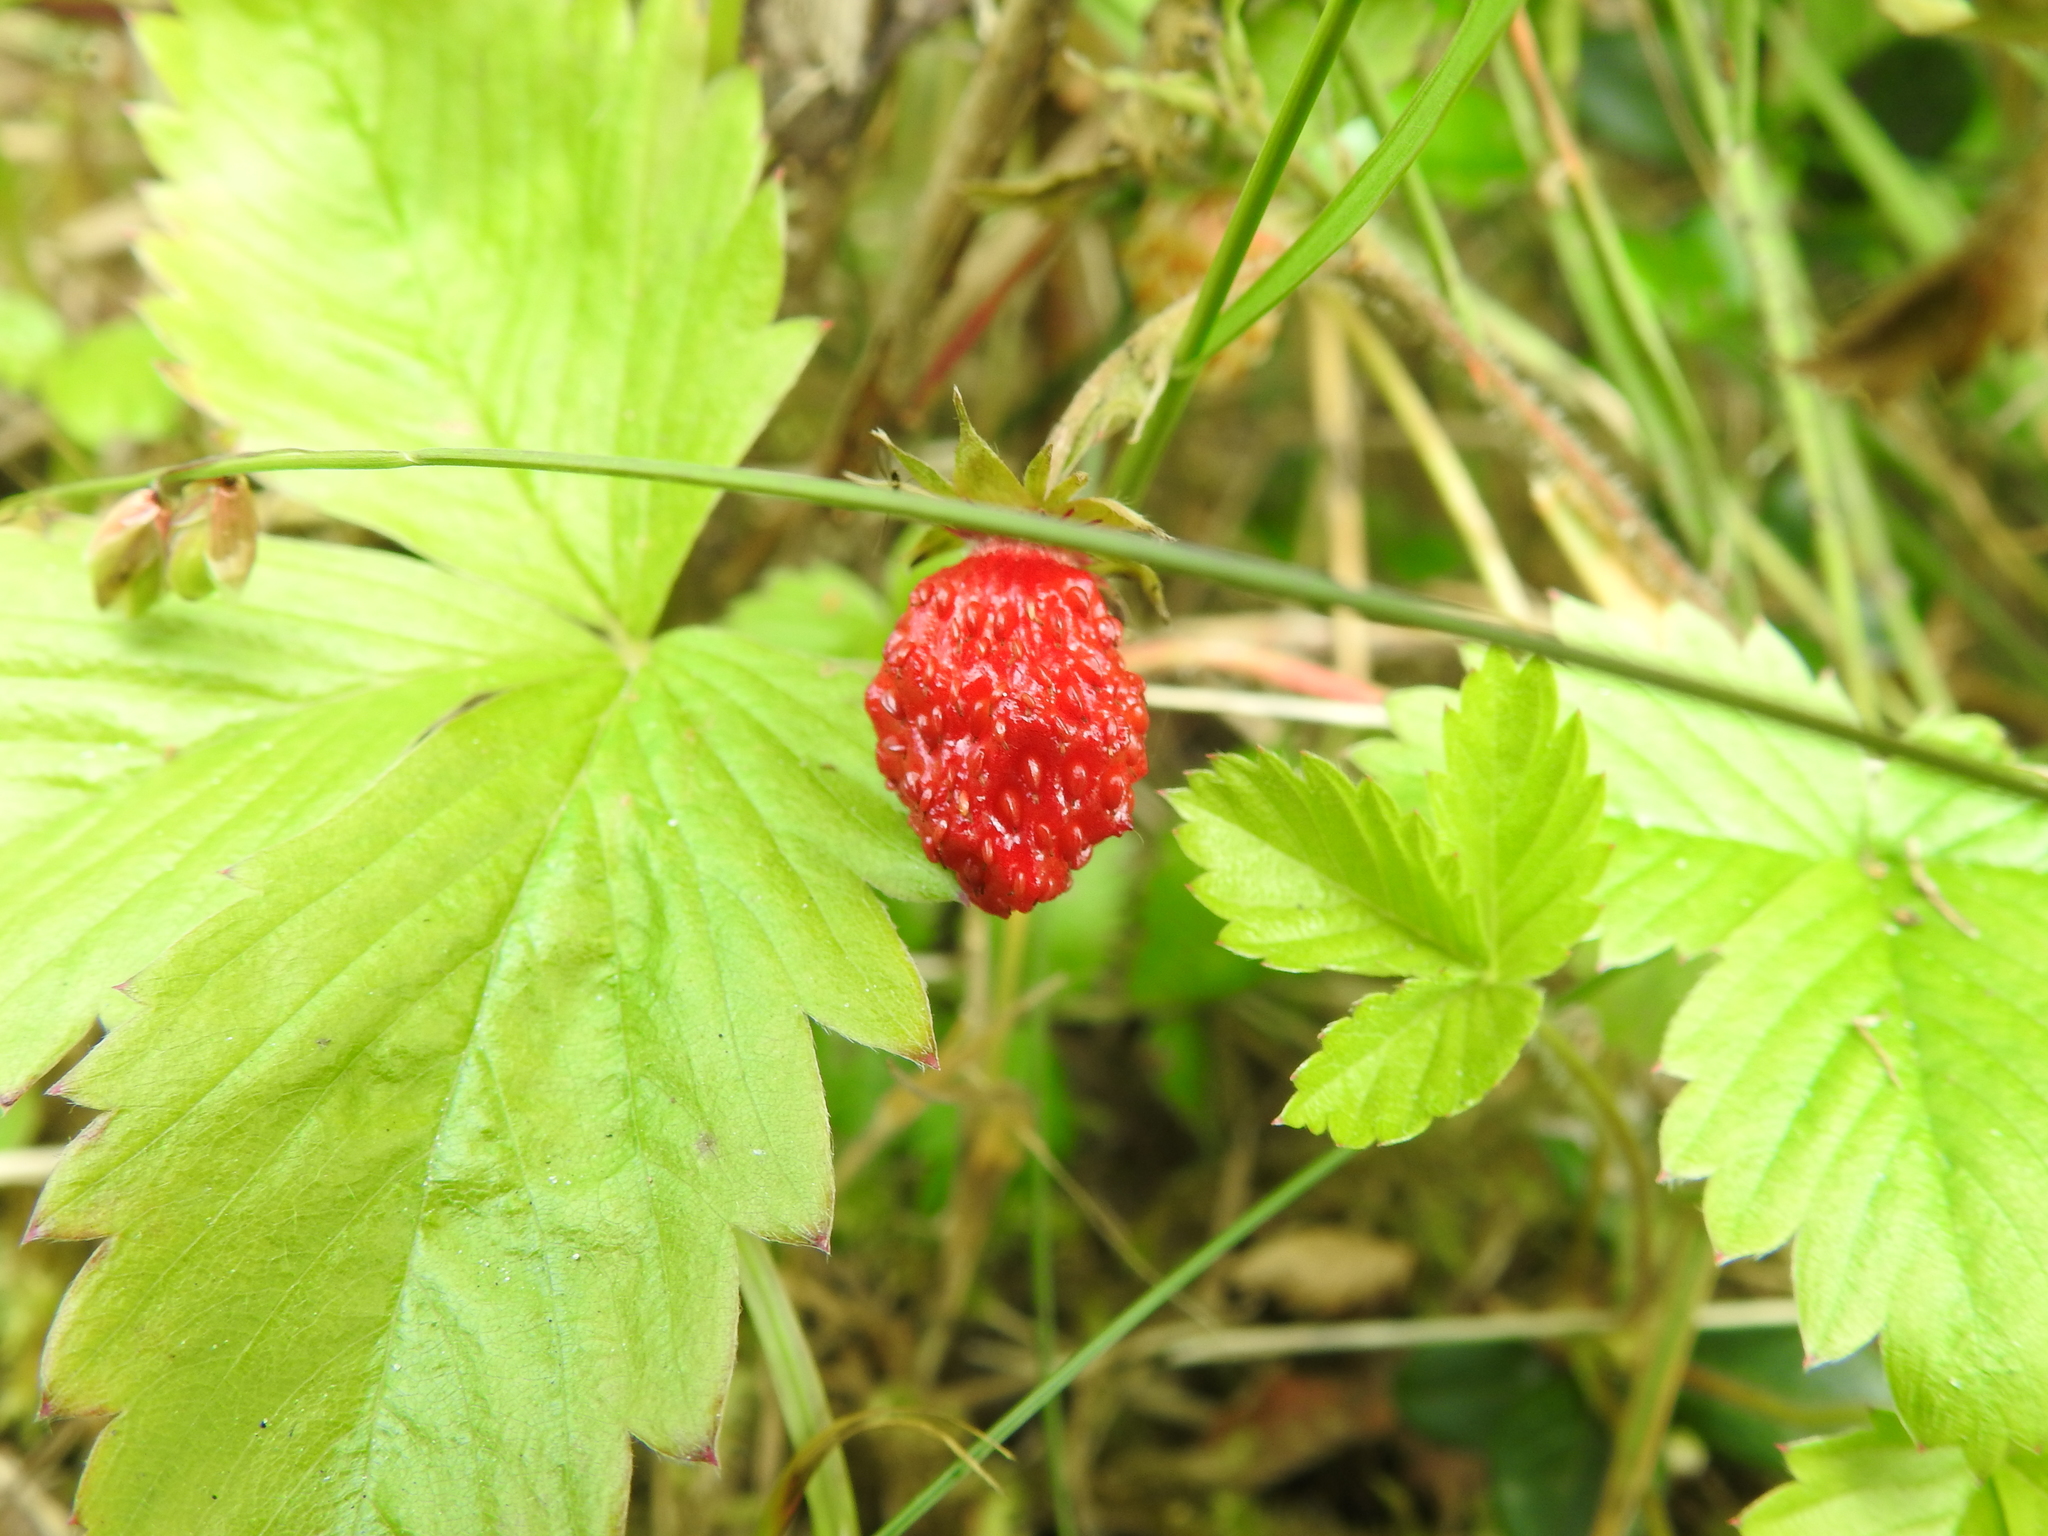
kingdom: Plantae
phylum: Tracheophyta
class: Magnoliopsida
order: Rosales
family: Rosaceae
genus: Fragaria
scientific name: Fragaria vesca
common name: Wild strawberry
